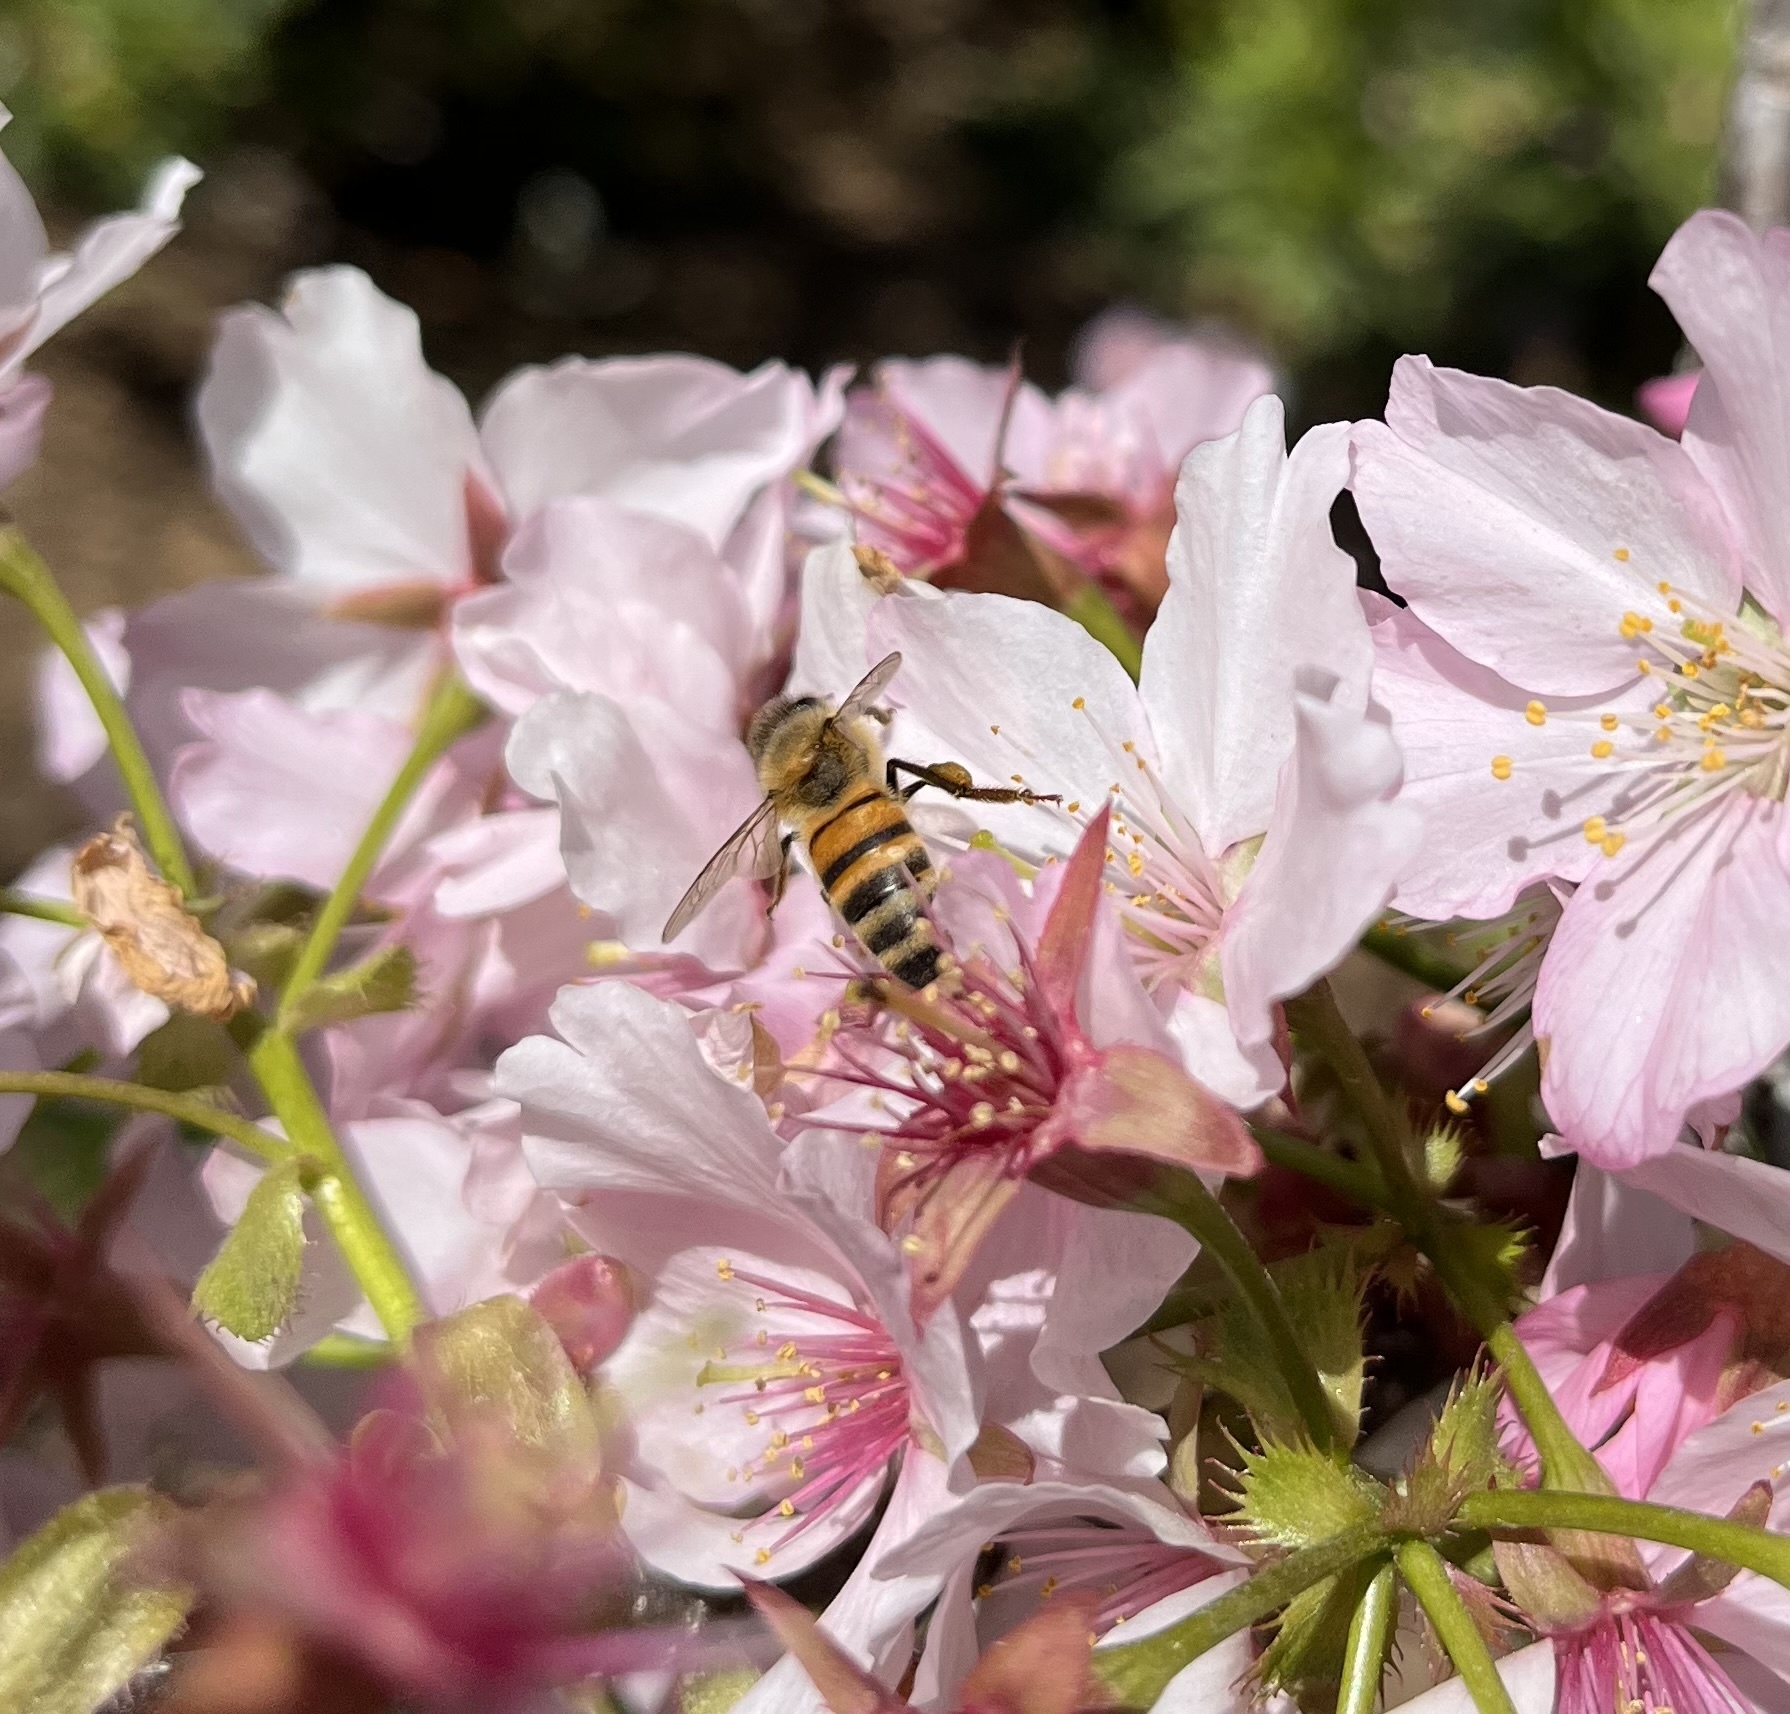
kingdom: Animalia
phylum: Arthropoda
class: Insecta
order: Hymenoptera
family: Apidae
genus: Apis
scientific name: Apis mellifera
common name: Honey bee
